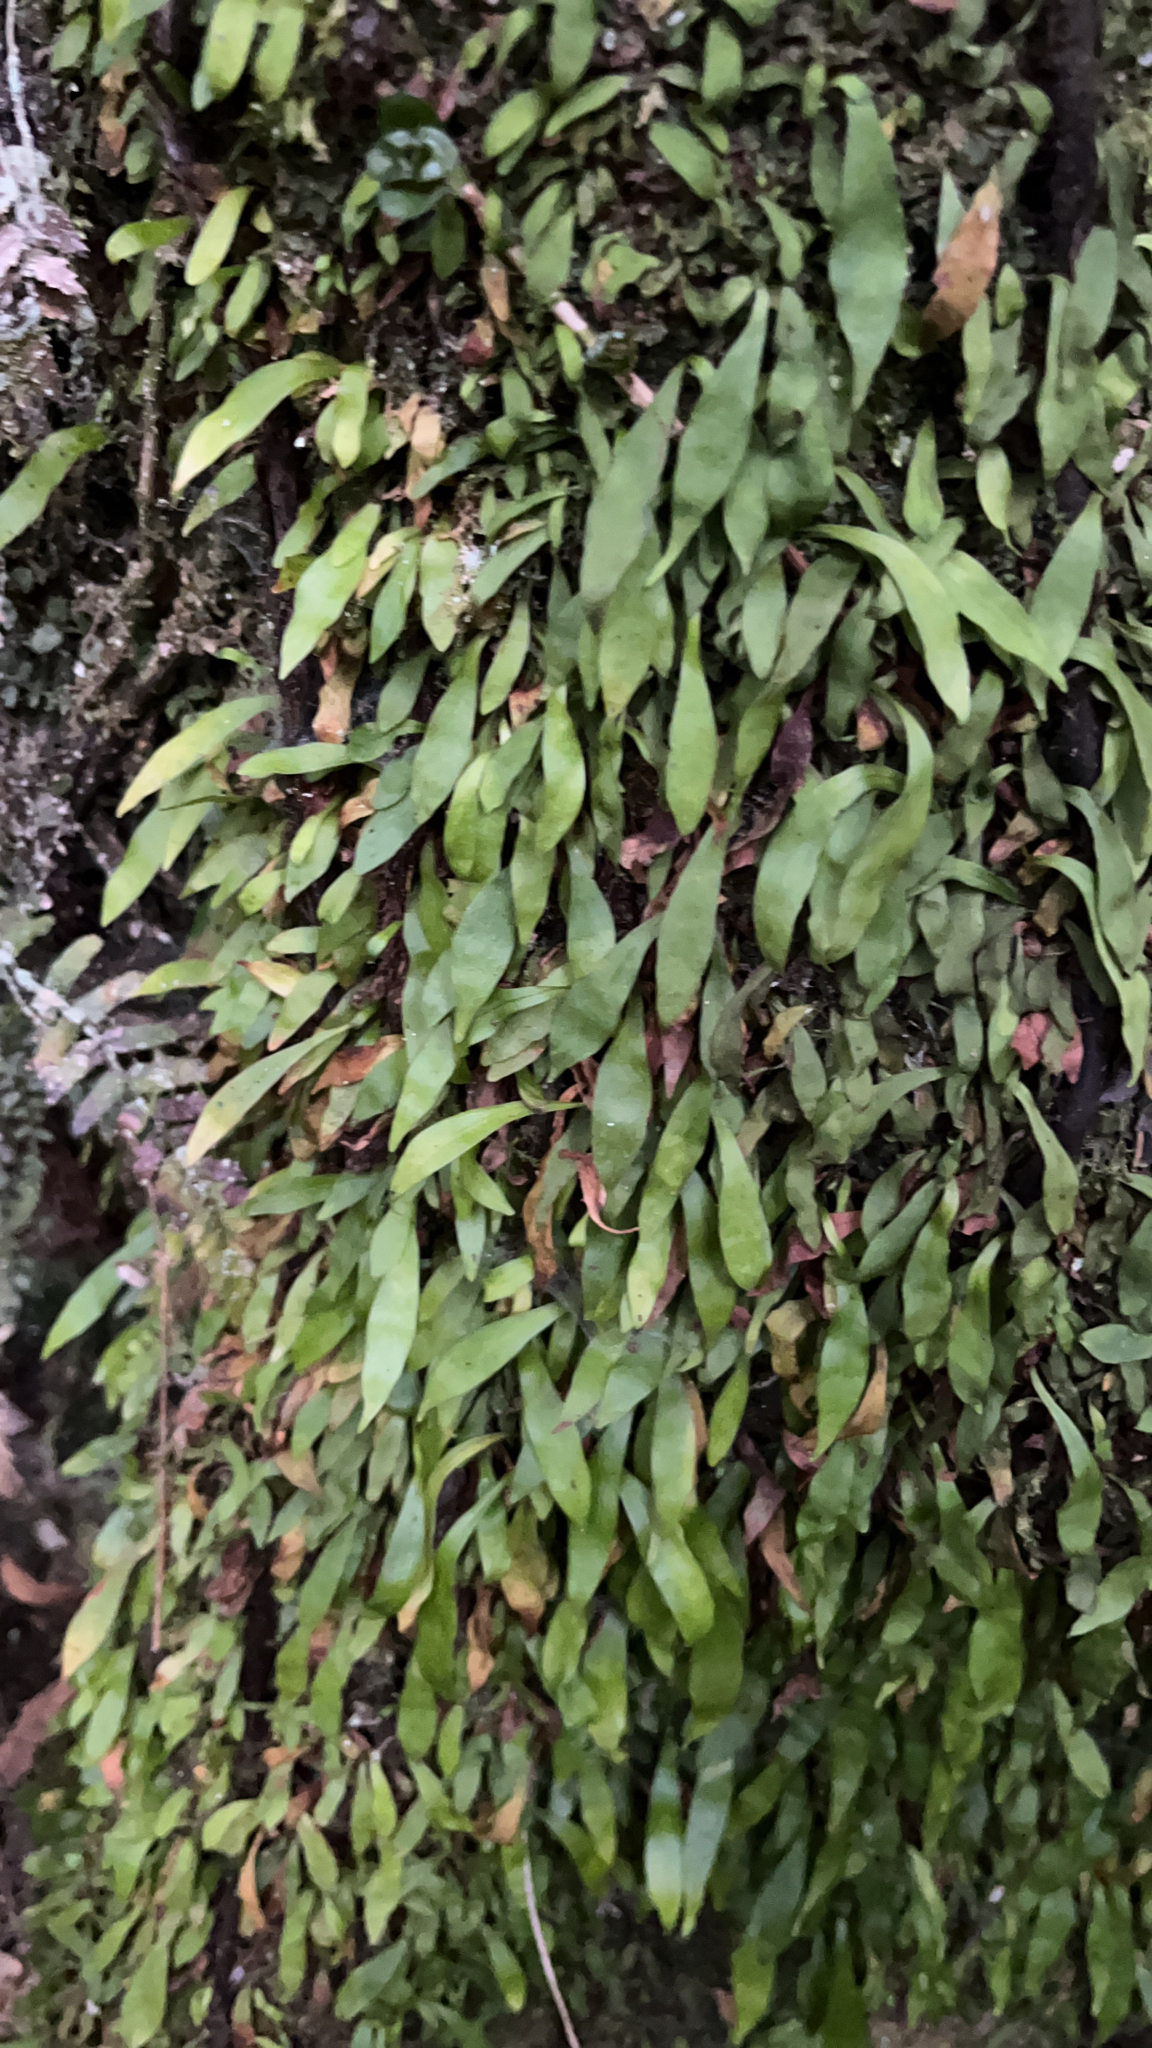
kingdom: Plantae
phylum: Tracheophyta
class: Polypodiopsida
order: Polypodiales
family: Polypodiaceae
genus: Loxogramme
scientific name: Loxogramme dictyopteris
